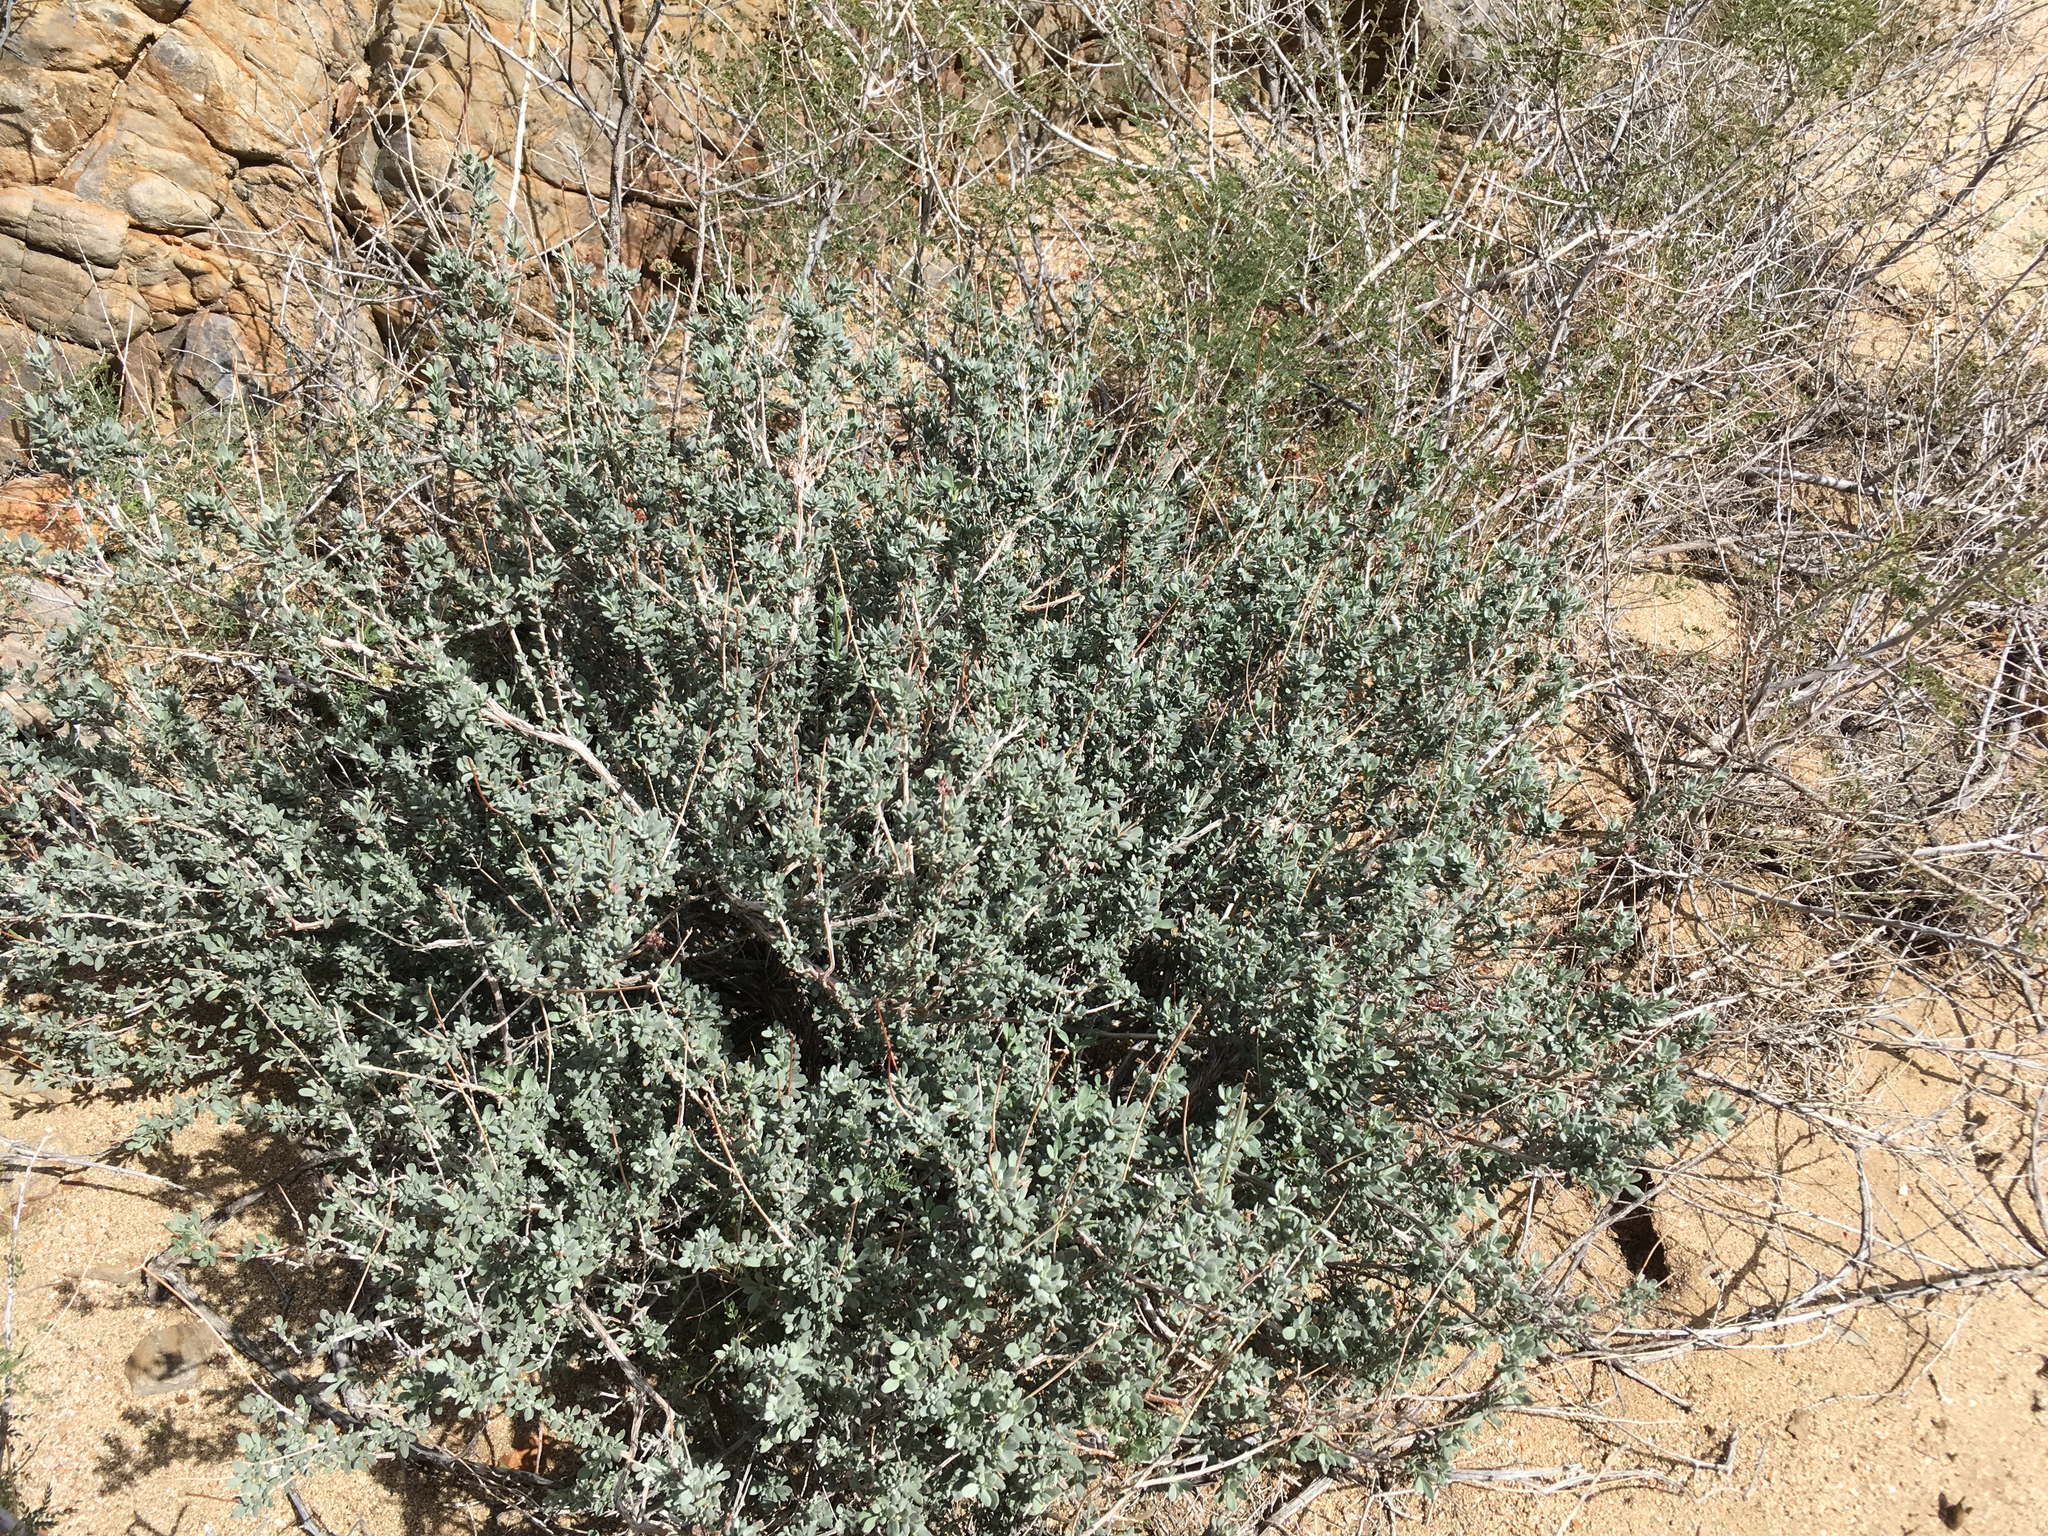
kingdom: Plantae
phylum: Tracheophyta
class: Magnoliopsida
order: Caryophyllales
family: Polygonaceae
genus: Eriogonum
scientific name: Eriogonum fasciculatum
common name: California wild buckwheat
